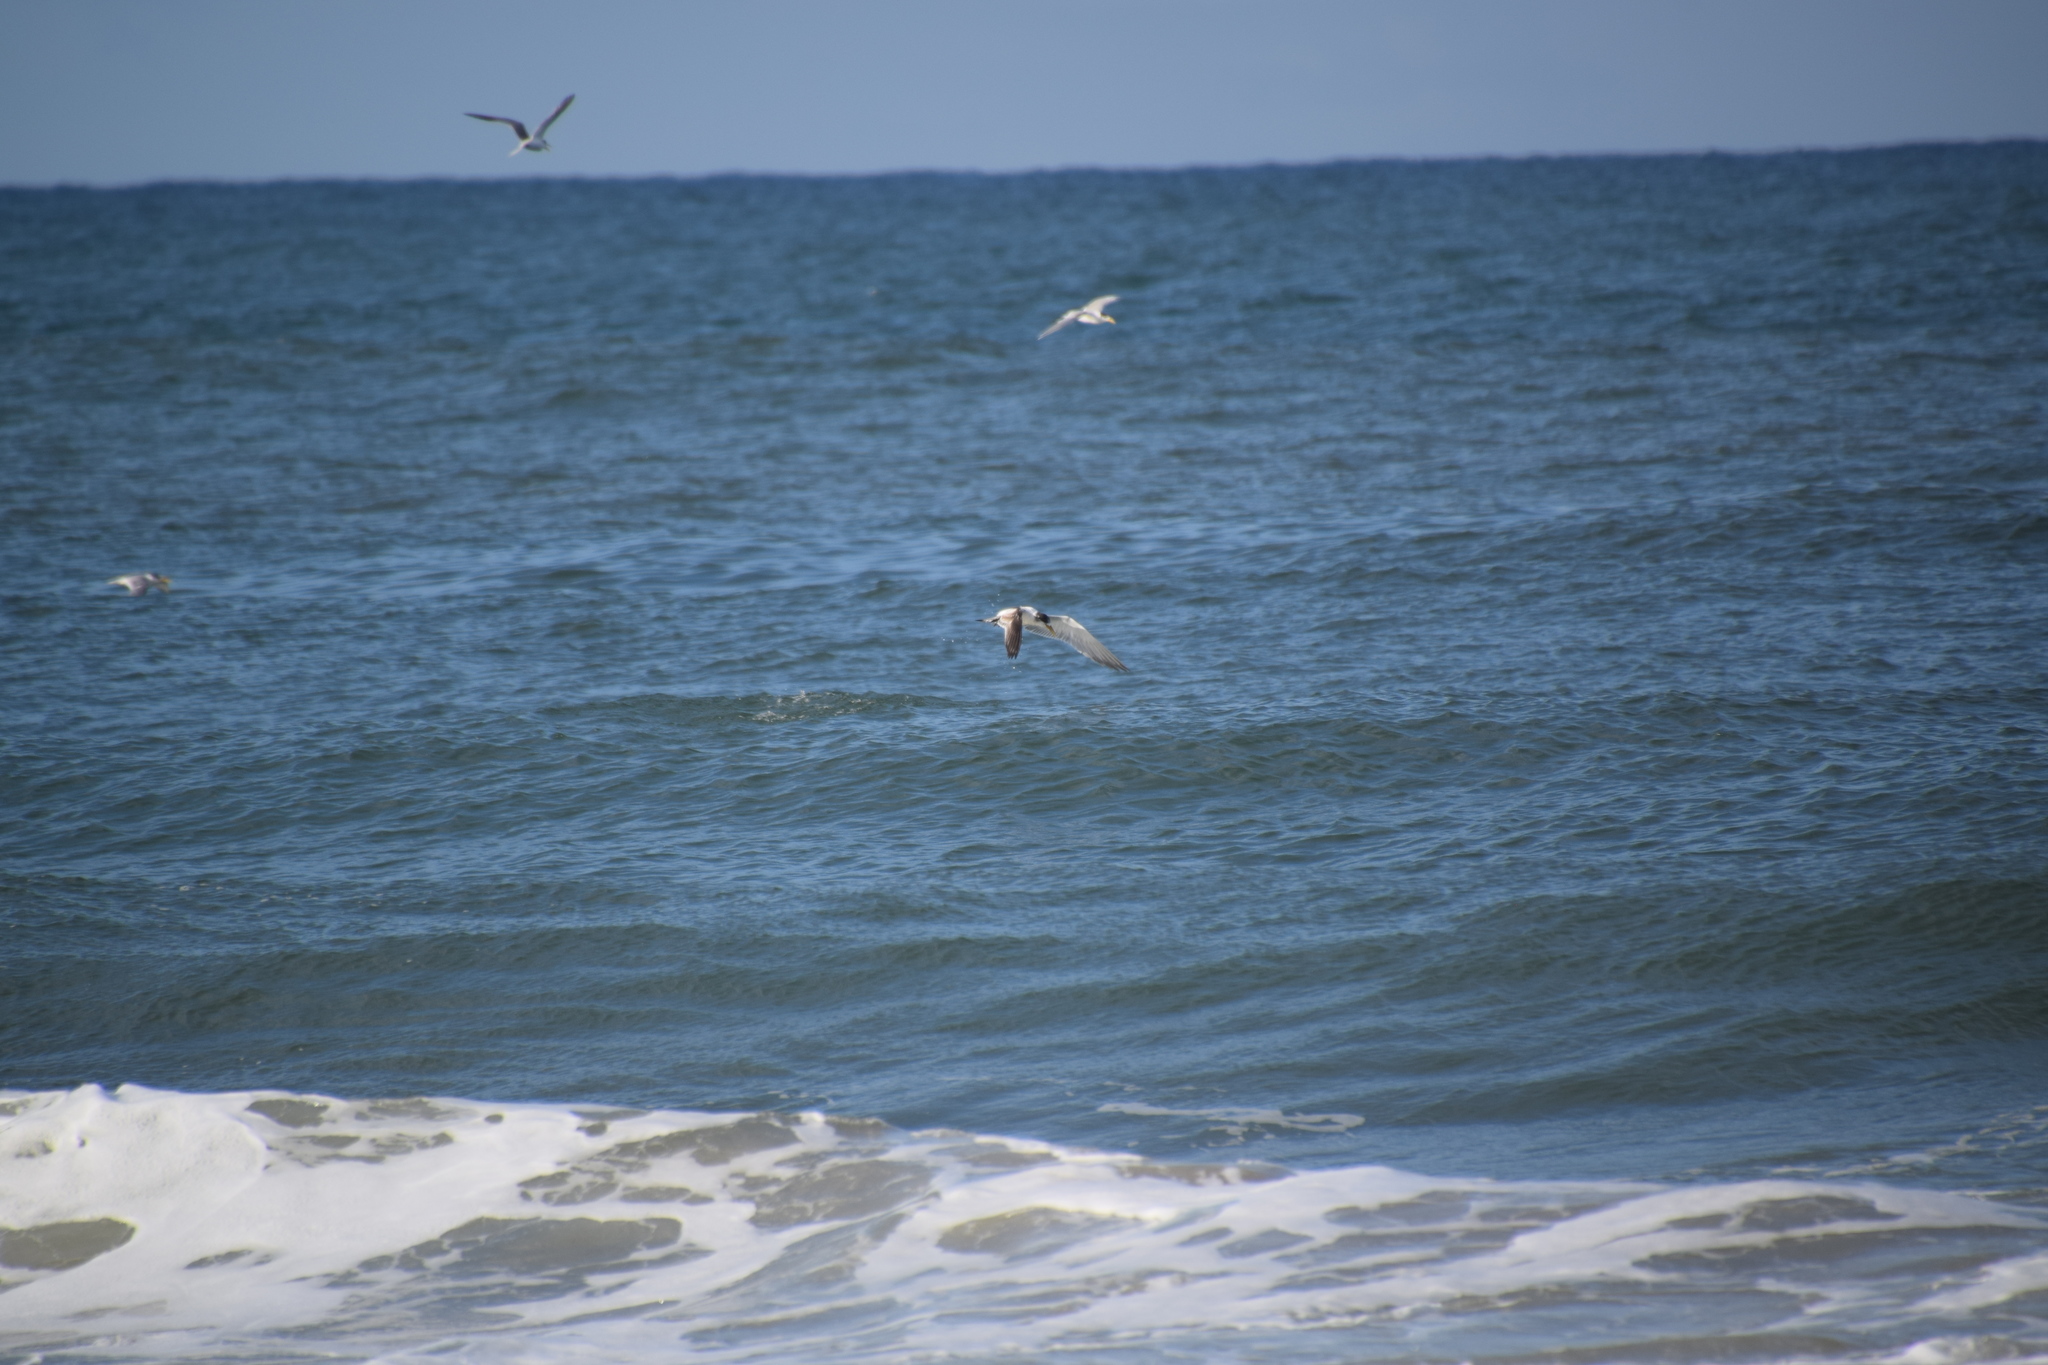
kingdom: Animalia
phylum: Chordata
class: Aves
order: Charadriiformes
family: Laridae
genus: Thalasseus
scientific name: Thalasseus bergii
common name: Greater crested tern
